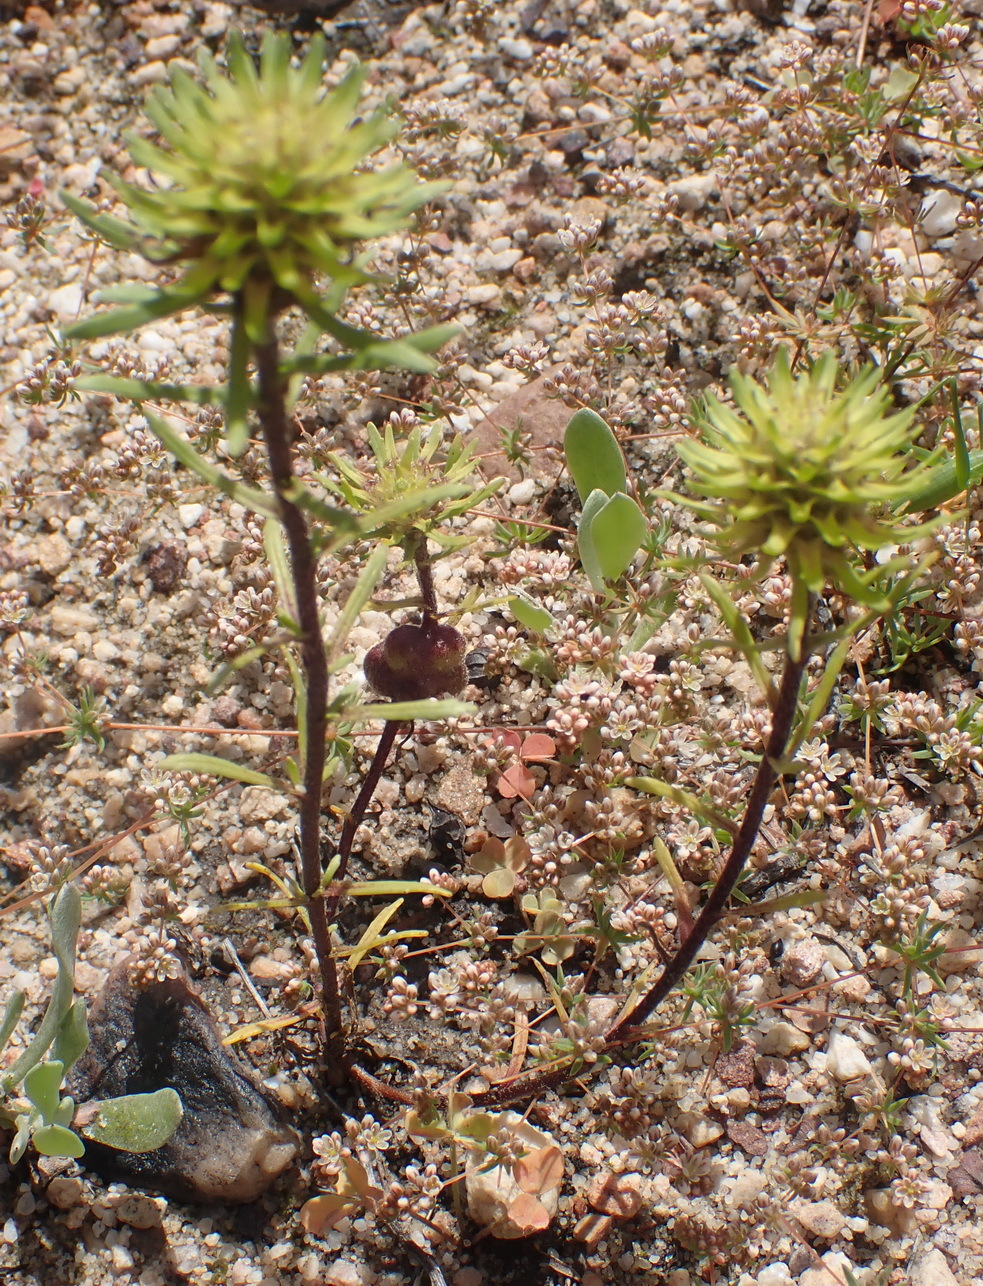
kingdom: Plantae
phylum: Tracheophyta
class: Magnoliopsida
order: Lamiales
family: Scrophulariaceae
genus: Dischisma
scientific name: Dischisma capitatum
